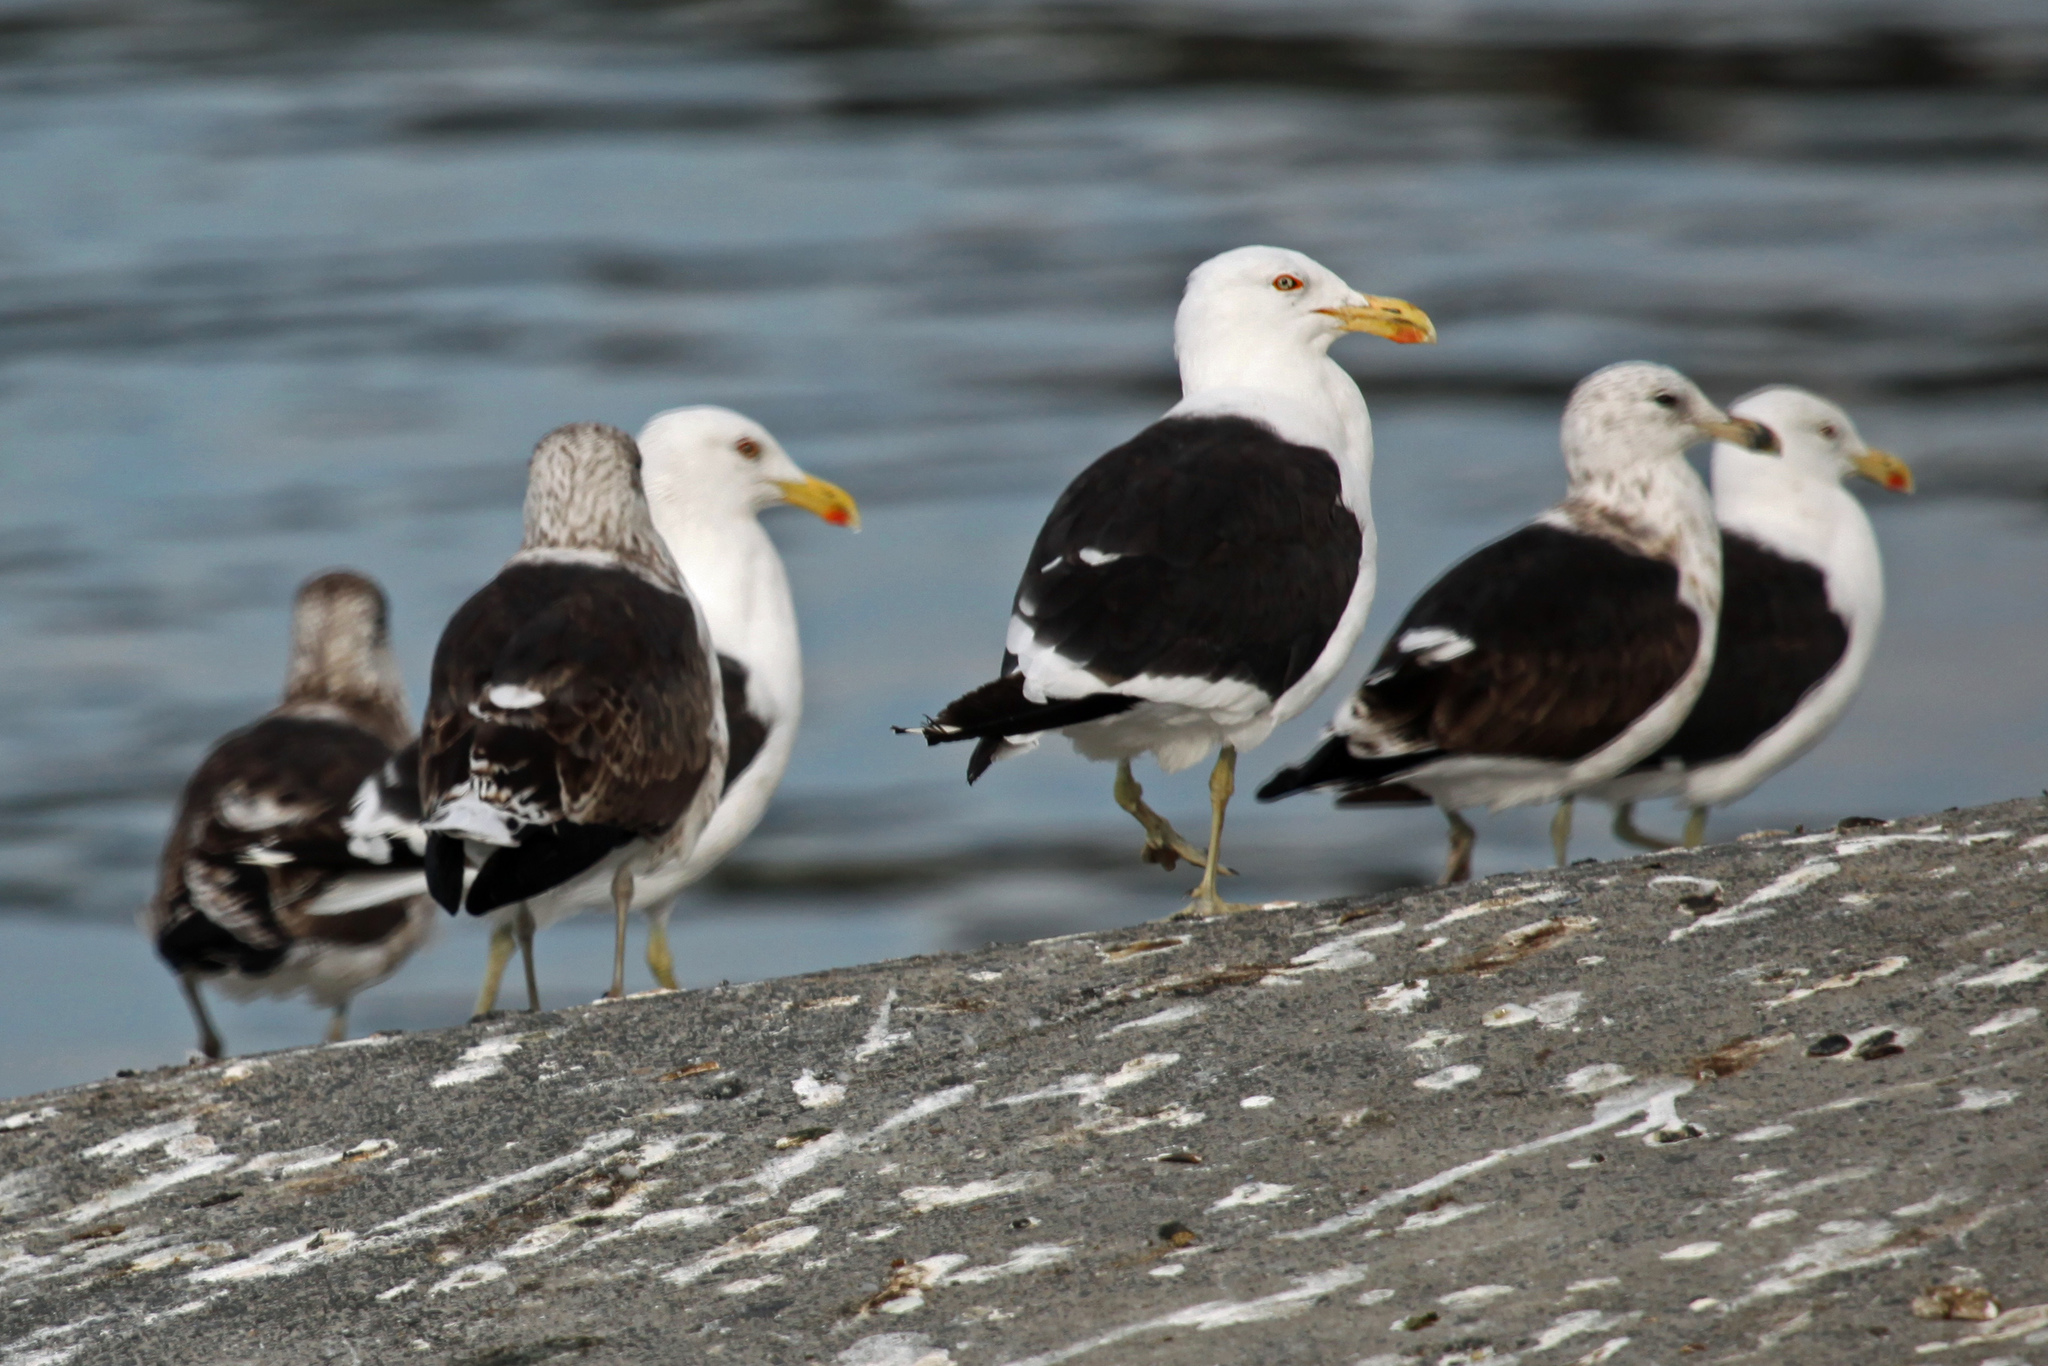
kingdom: Animalia
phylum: Chordata
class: Aves
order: Charadriiformes
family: Laridae
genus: Larus
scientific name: Larus dominicanus
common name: Kelp gull
